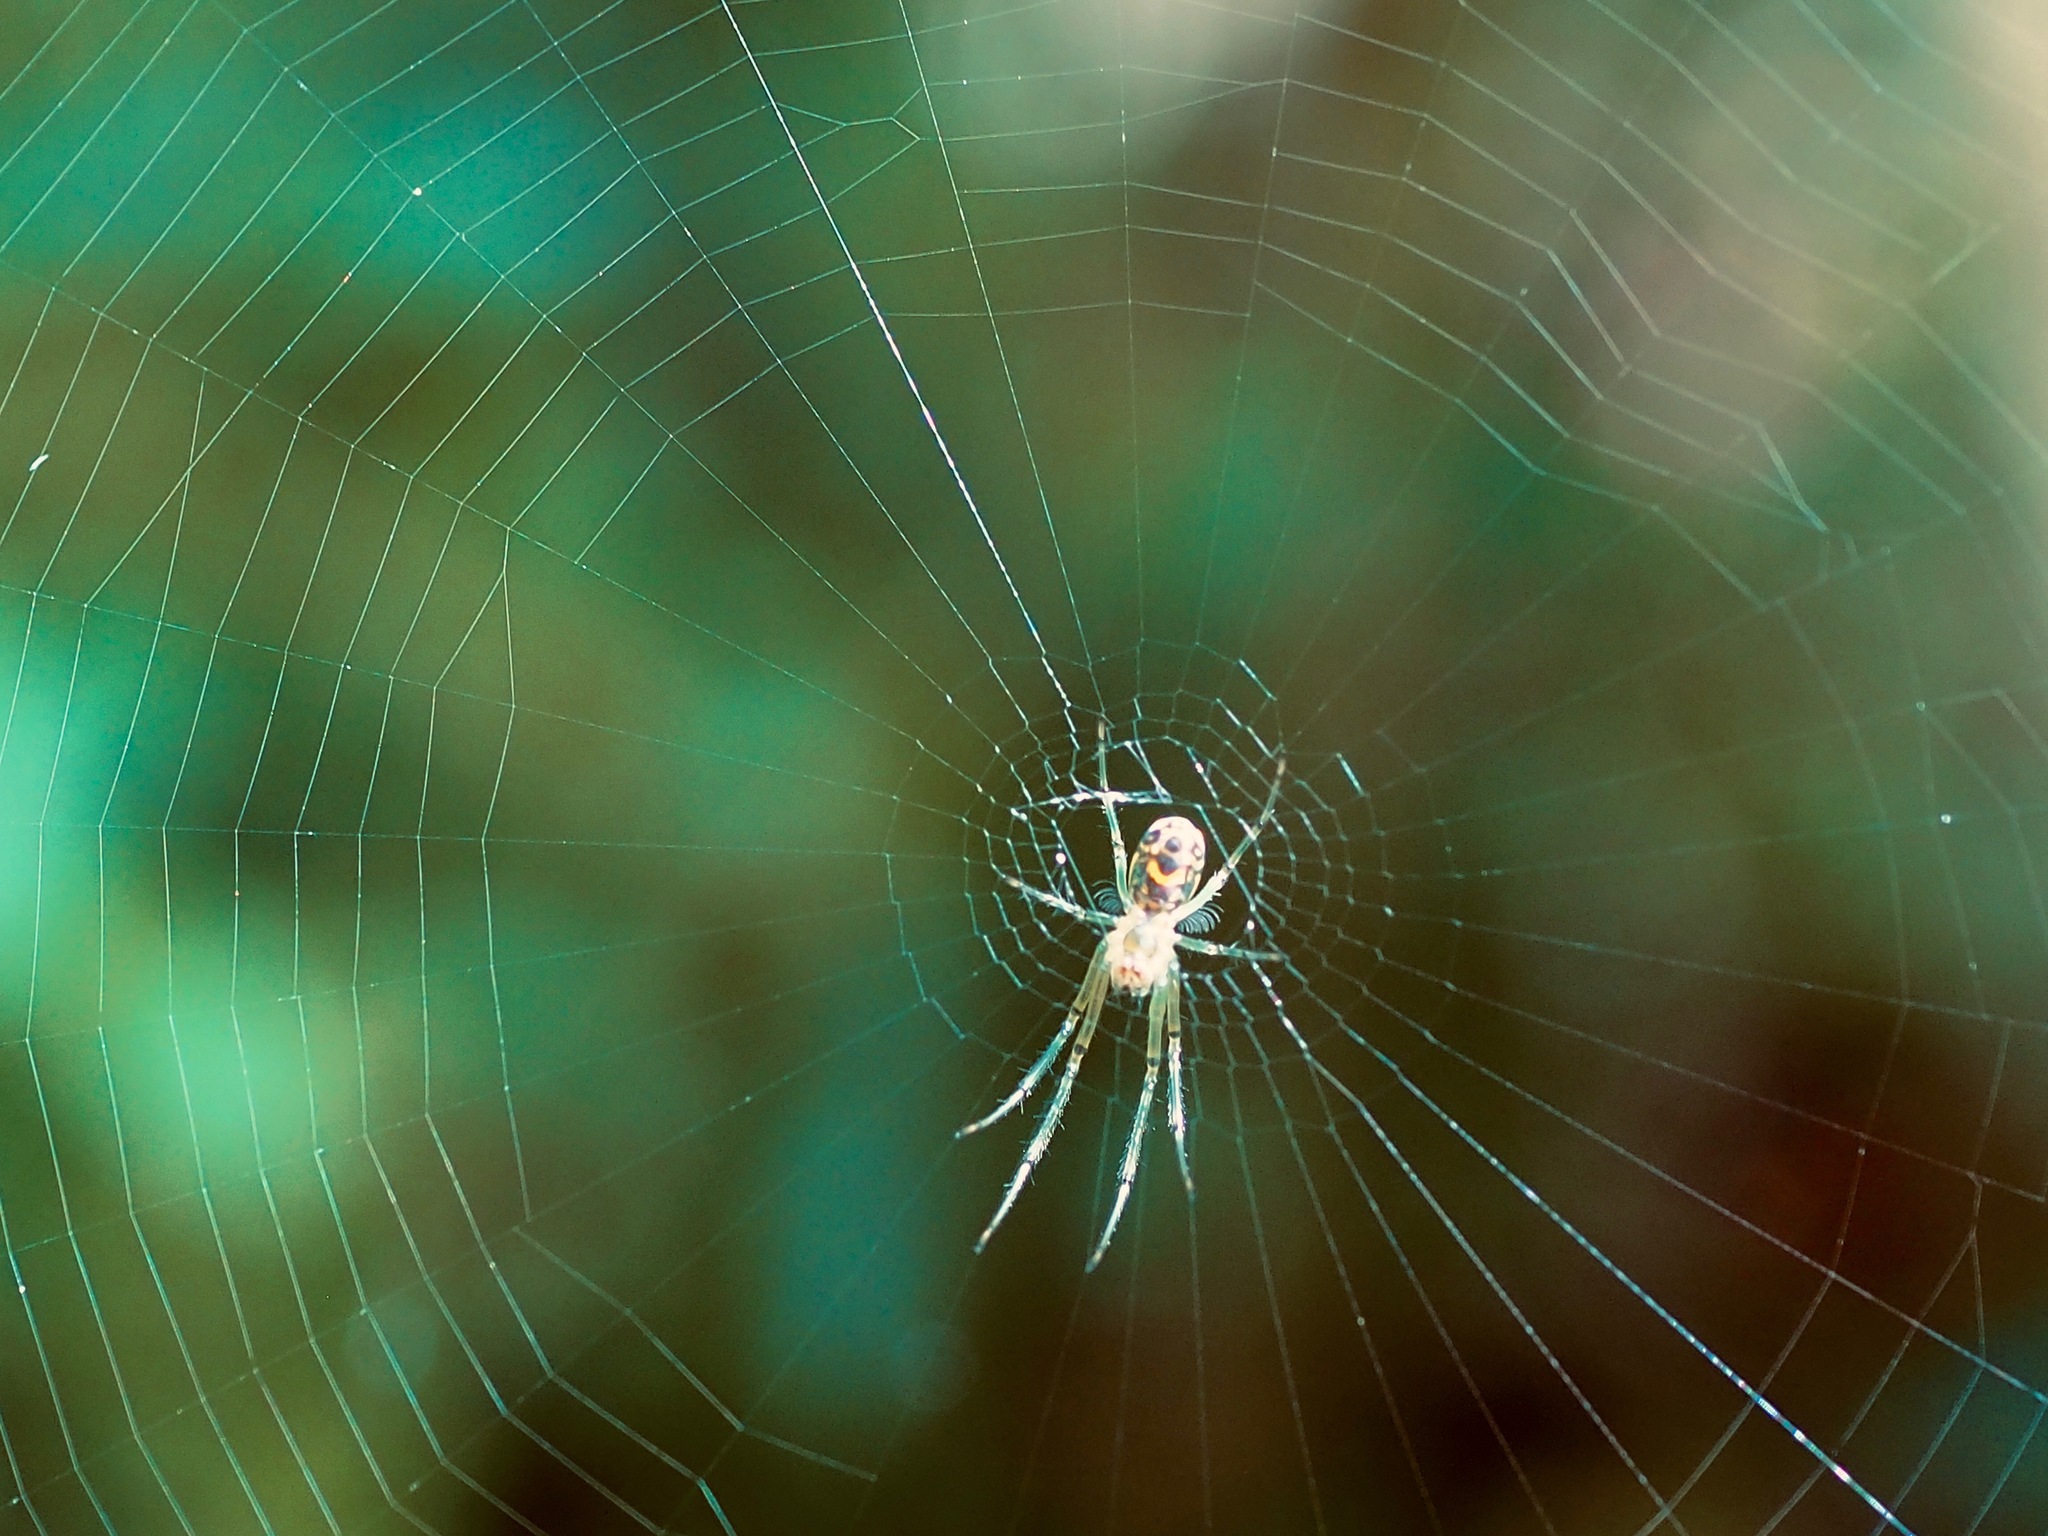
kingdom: Animalia
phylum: Arthropoda
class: Arachnida
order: Araneae
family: Tetragnathidae
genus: Leucauge
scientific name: Leucauge venusta
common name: Longjawed orb weavers
